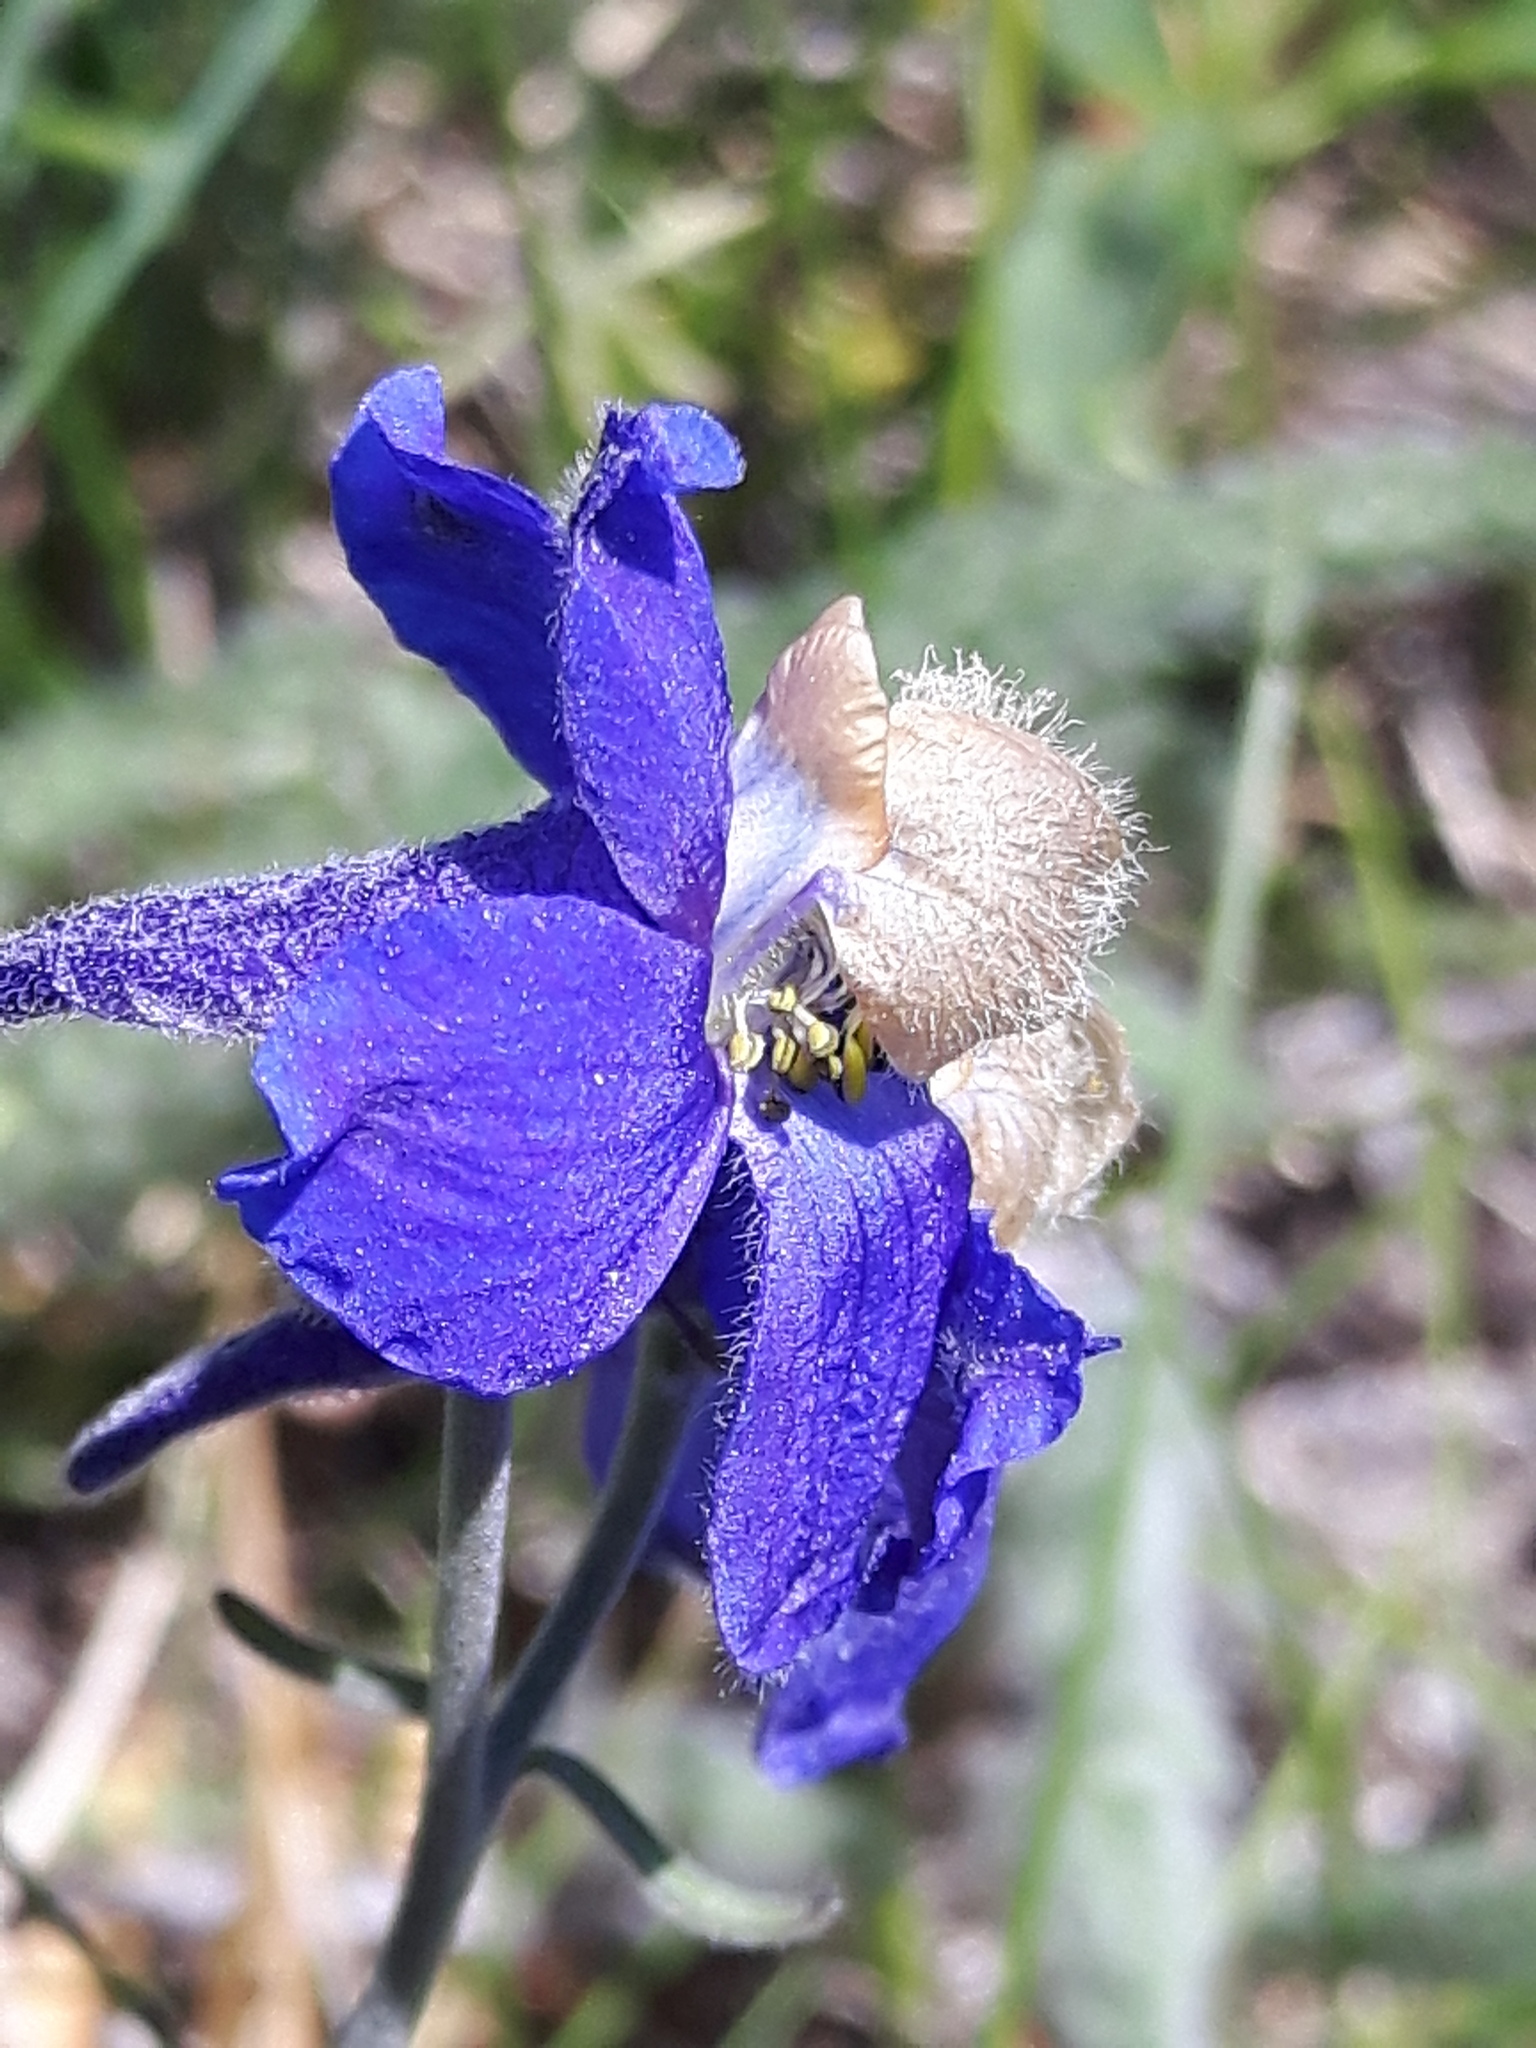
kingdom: Plantae
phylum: Tracheophyta
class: Magnoliopsida
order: Ranunculales
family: Ranunculaceae
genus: Delphinium
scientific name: Delphinium sutherlandii
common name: Sutherland's larkspur
